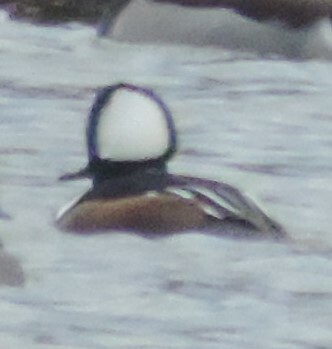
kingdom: Animalia
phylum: Chordata
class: Aves
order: Anseriformes
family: Anatidae
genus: Lophodytes
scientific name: Lophodytes cucullatus
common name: Hooded merganser
